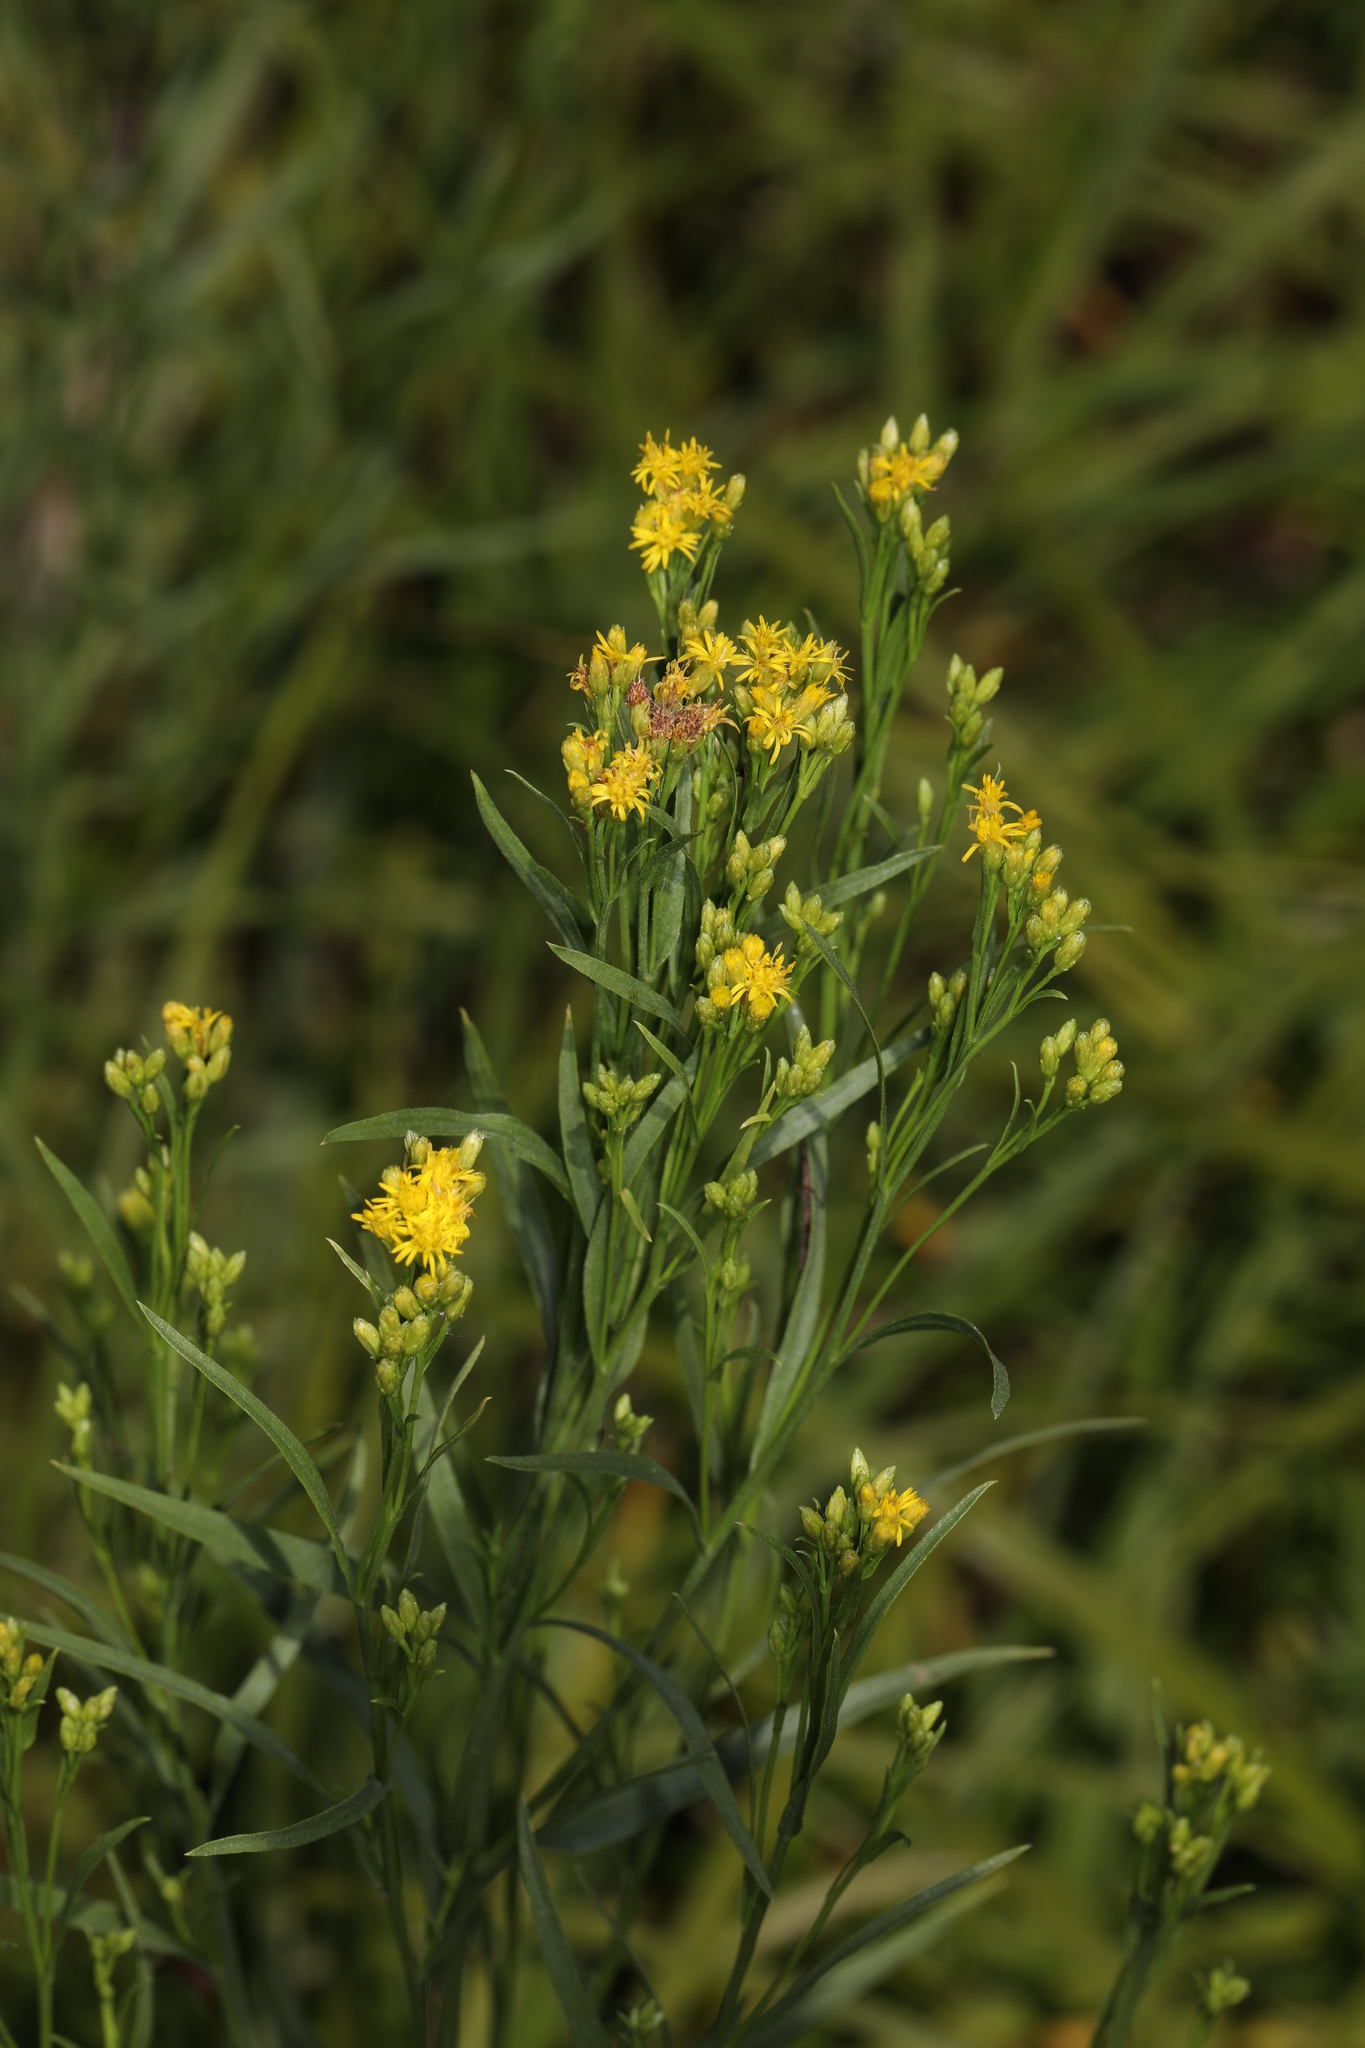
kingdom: Plantae
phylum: Tracheophyta
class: Magnoliopsida
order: Asterales
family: Asteraceae
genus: Euthamia
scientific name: Euthamia occidentalis
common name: Western goldentop
